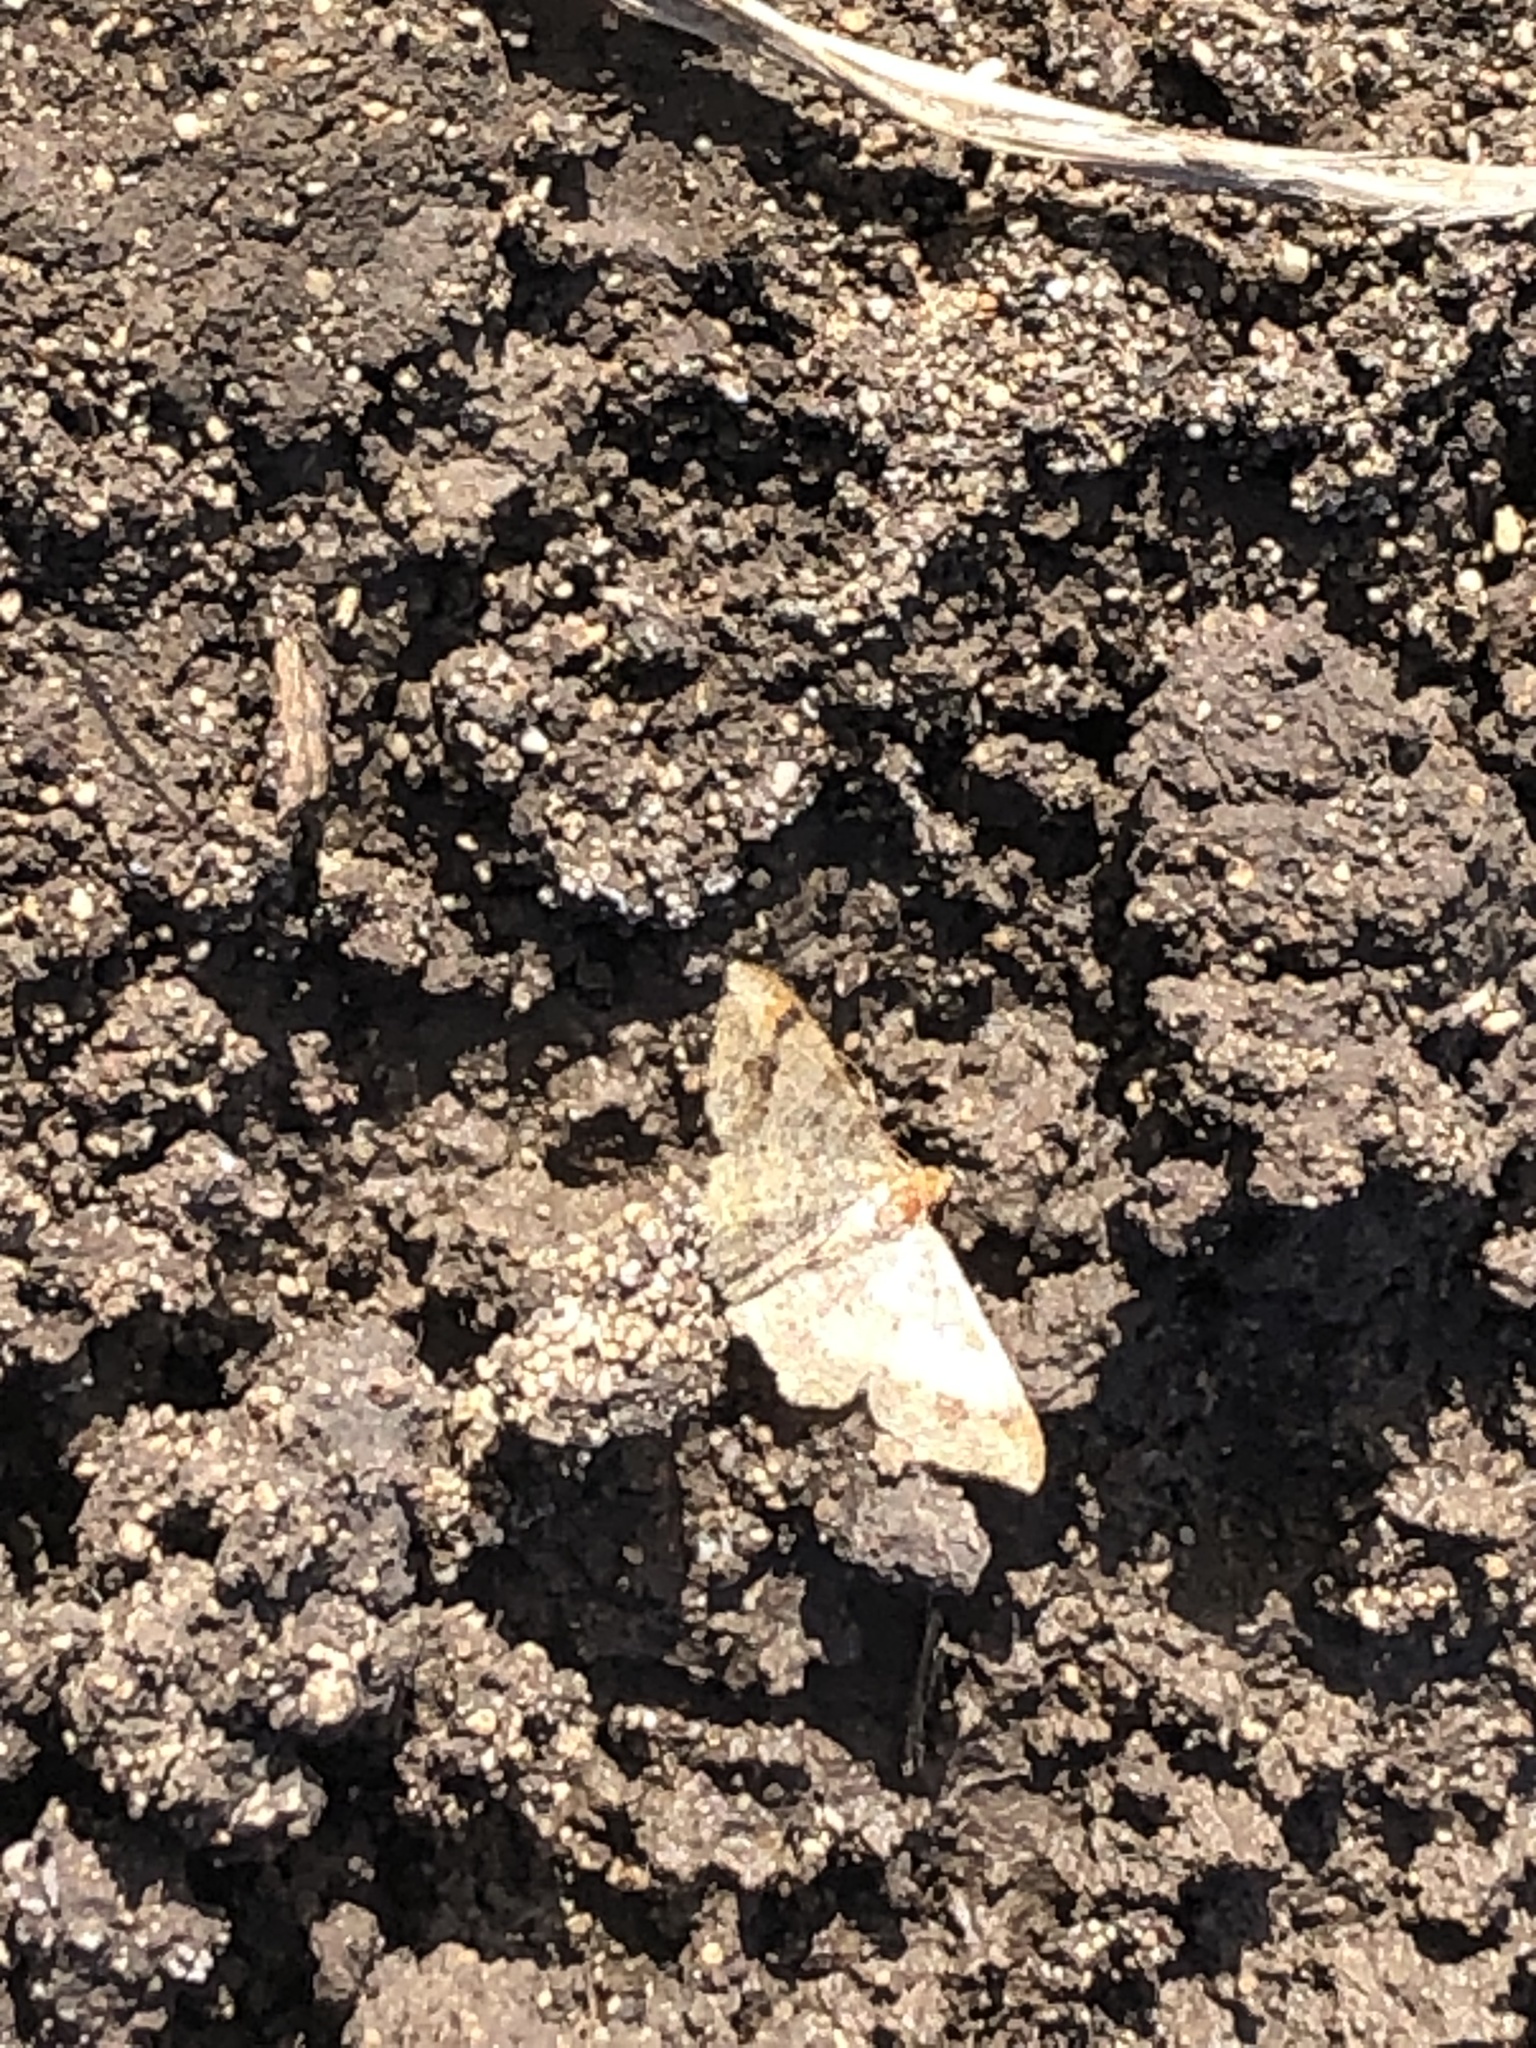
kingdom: Animalia
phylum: Arthropoda
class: Insecta
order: Lepidoptera
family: Geometridae
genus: Macaria
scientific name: Macaria abydata
